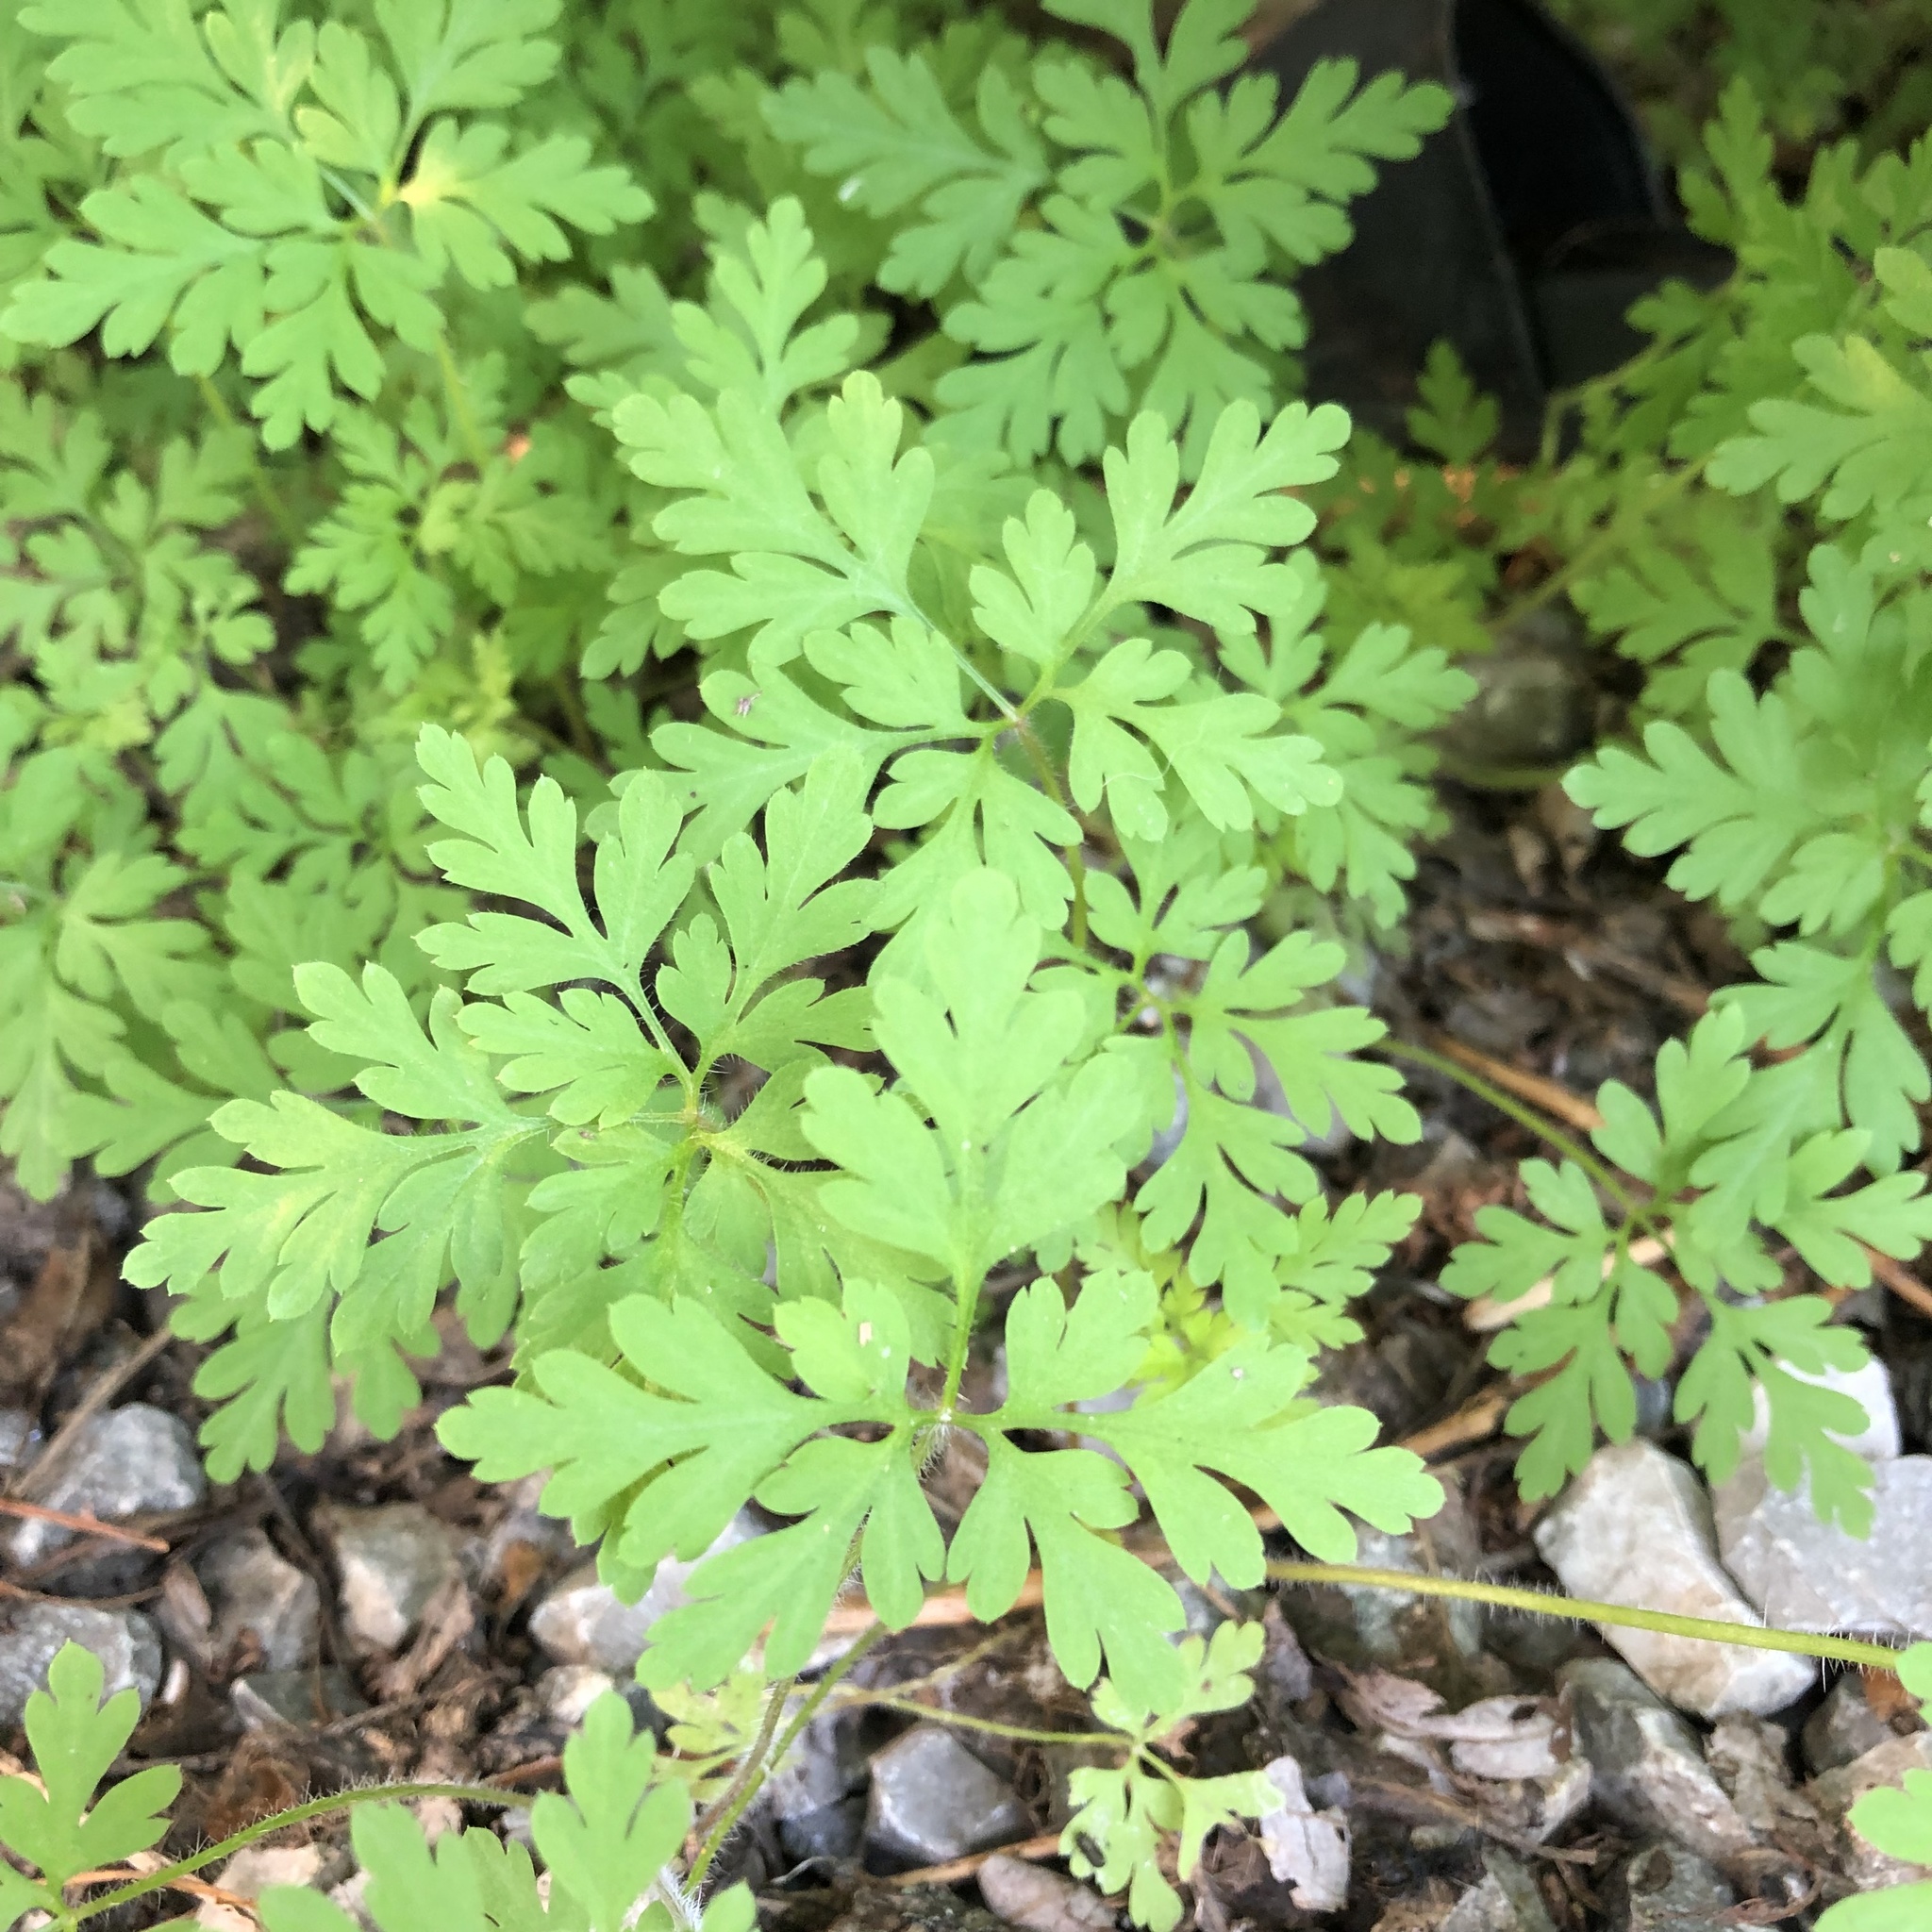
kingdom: Plantae
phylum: Tracheophyta
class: Magnoliopsida
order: Geraniales
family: Geraniaceae
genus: Geranium
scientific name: Geranium robertianum
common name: Herb-robert
